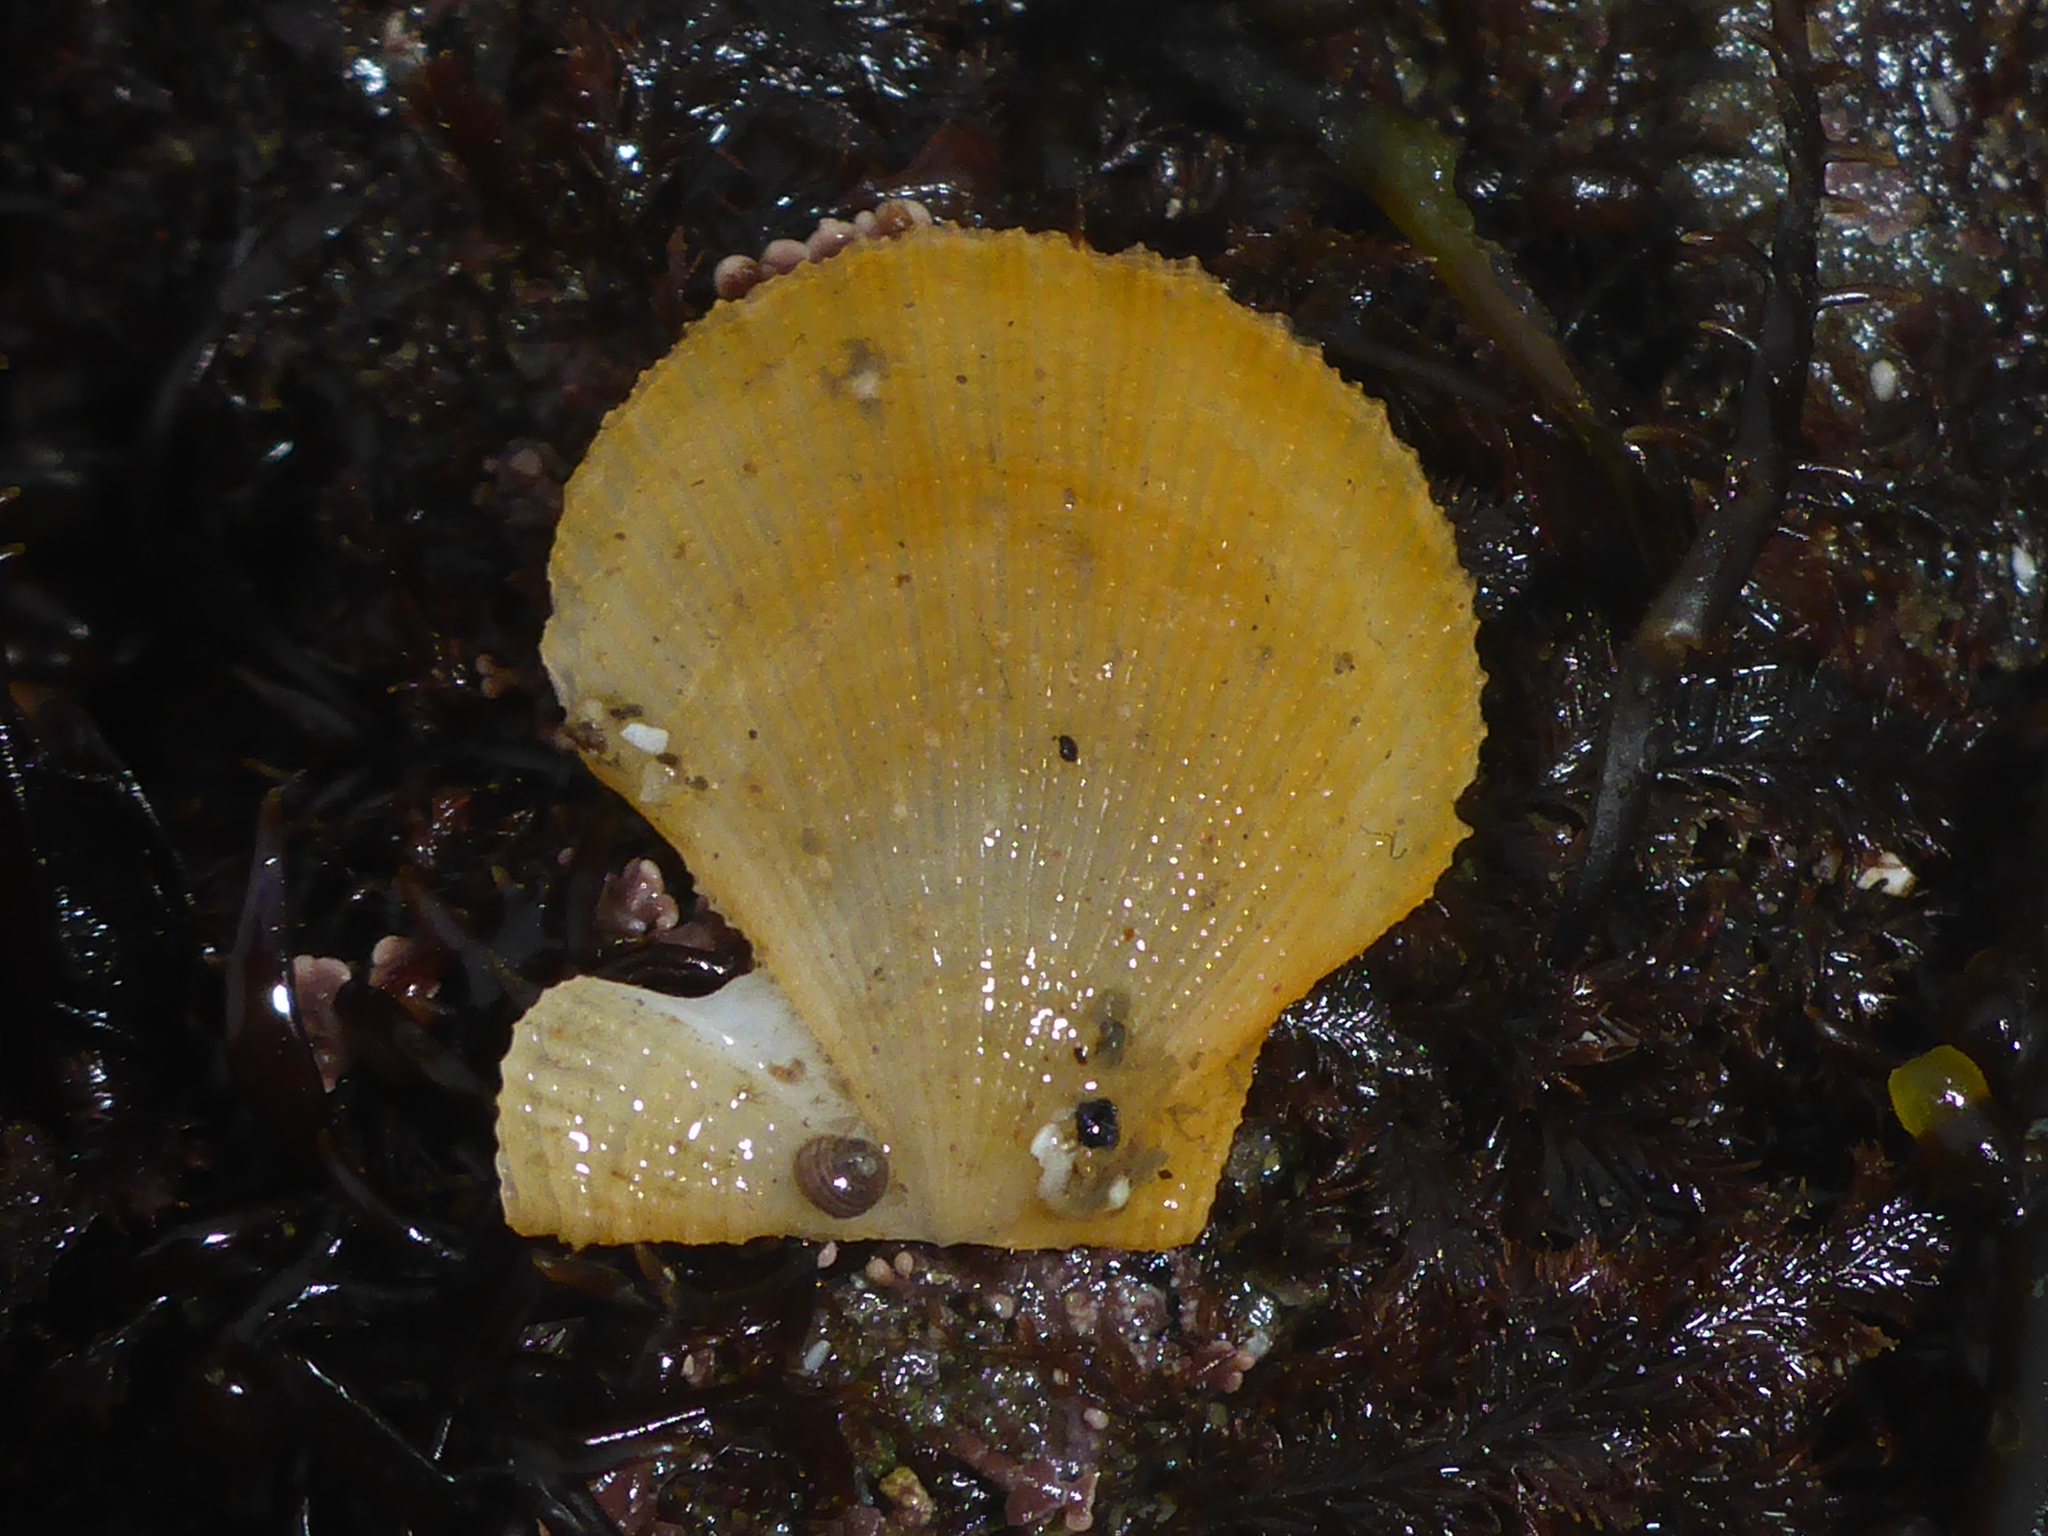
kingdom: Animalia
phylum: Mollusca
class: Bivalvia
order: Pectinida
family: Pectinidae
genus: Crassadoma
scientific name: Crassadoma gigantea
